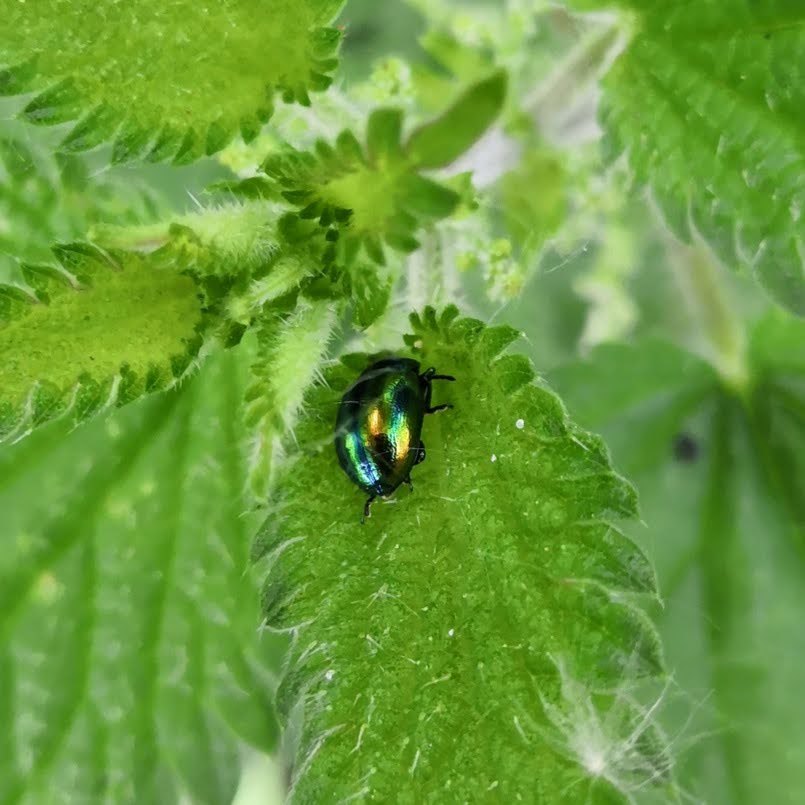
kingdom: Animalia
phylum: Arthropoda
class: Insecta
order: Coleoptera
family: Chrysomelidae
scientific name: Chrysomelidae
